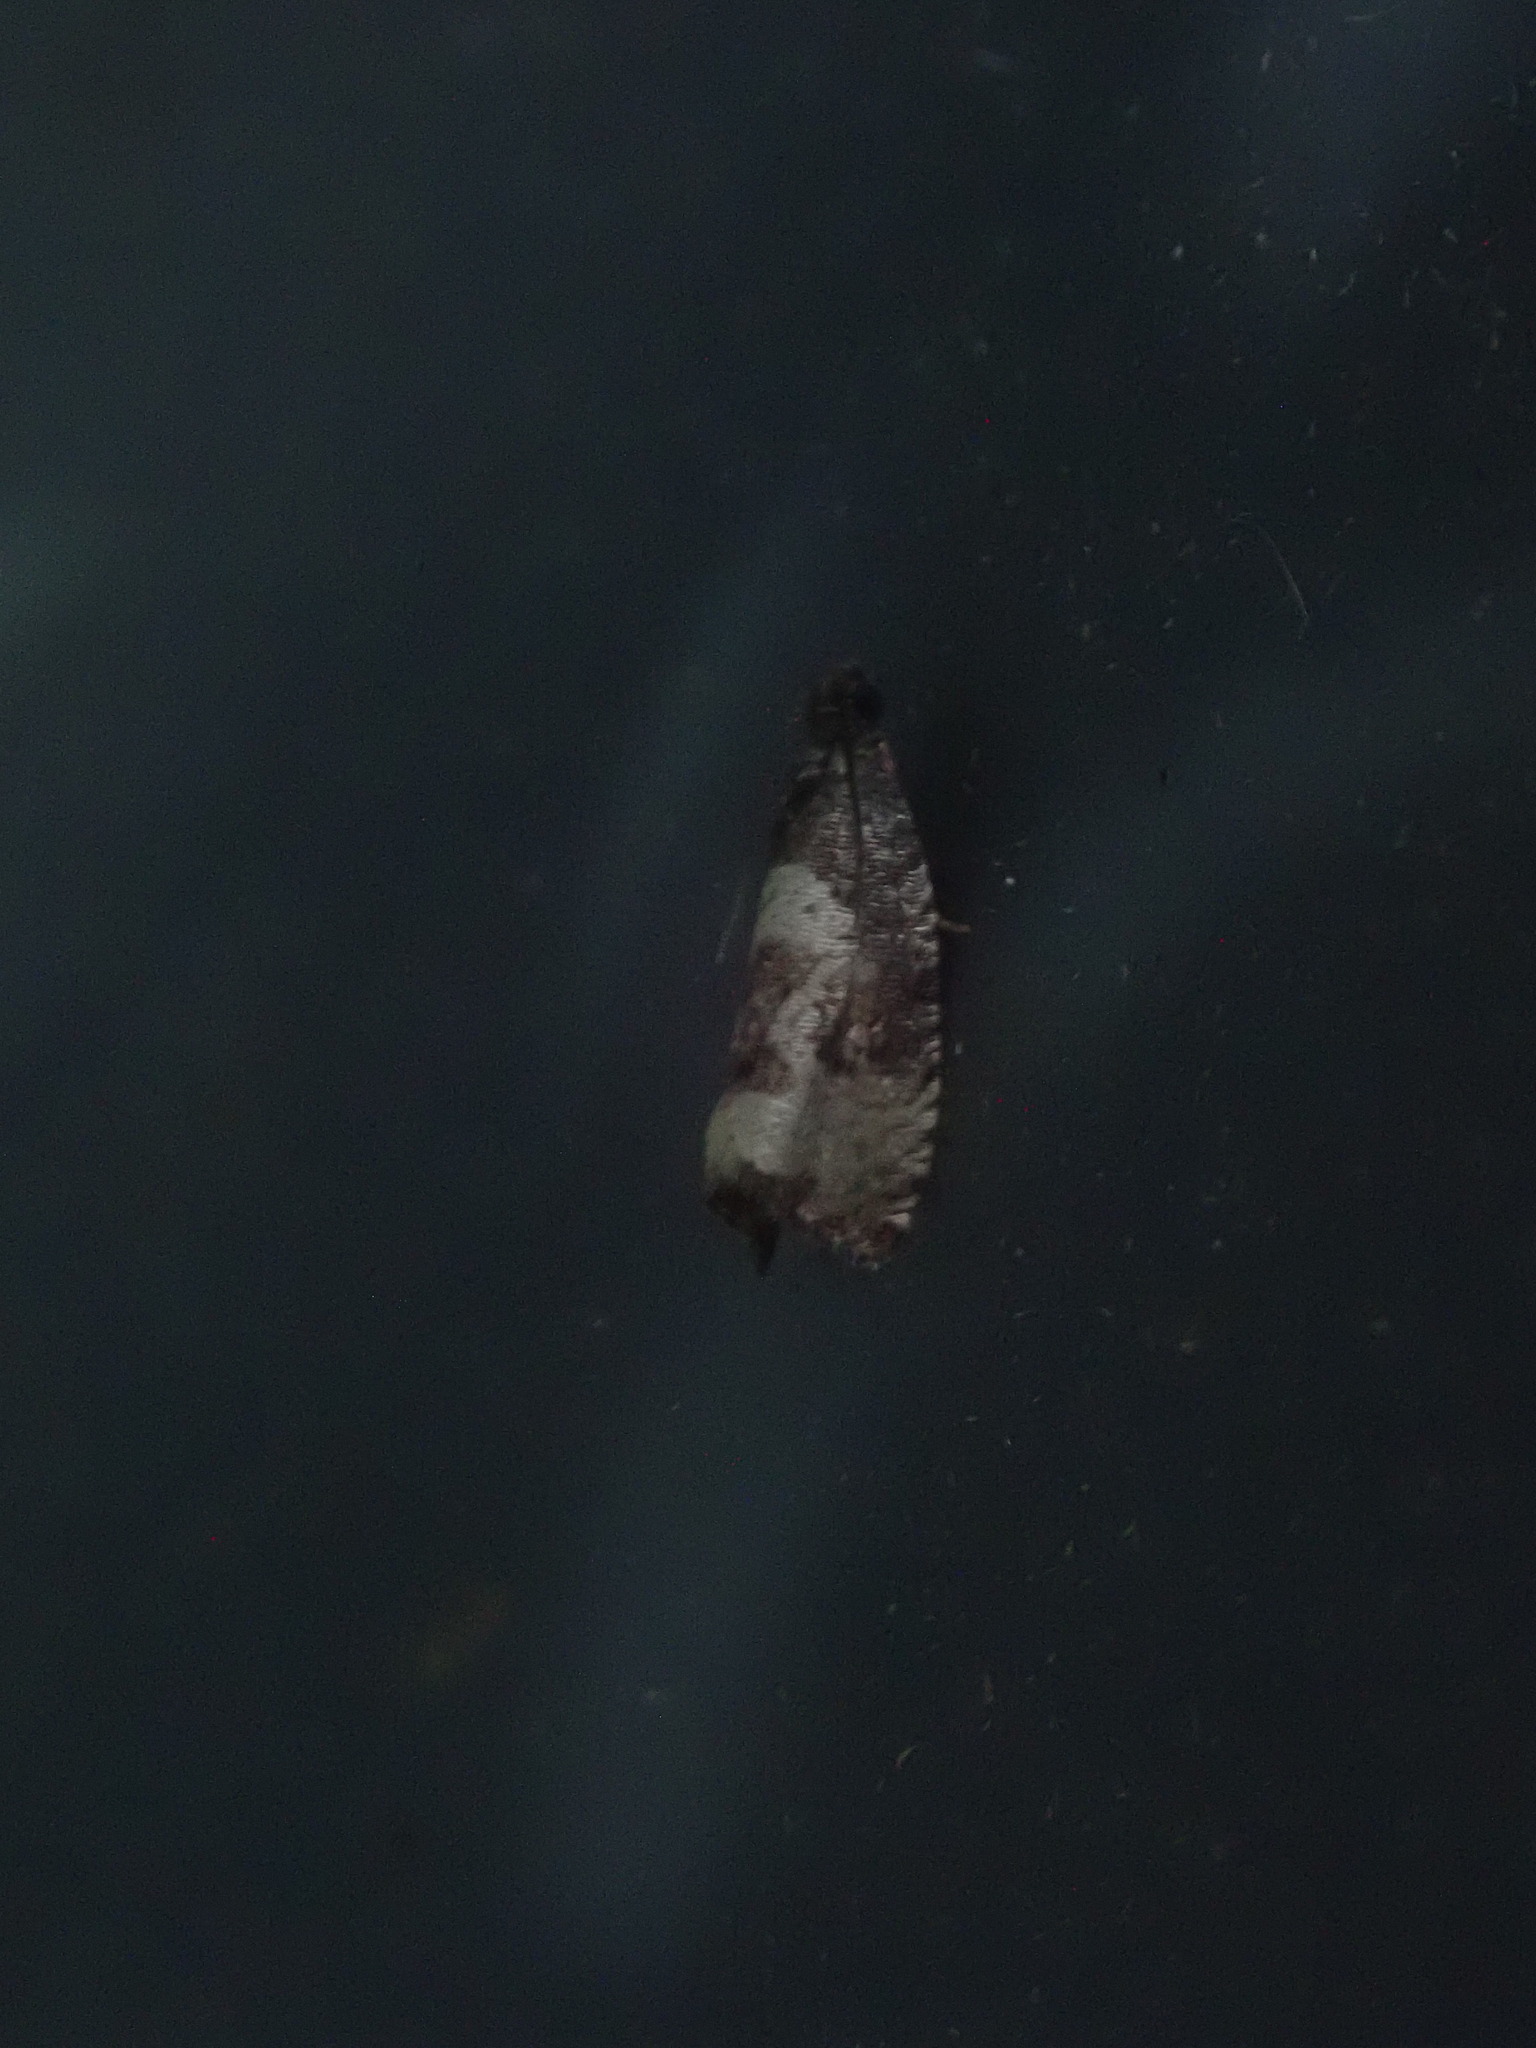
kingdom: Animalia
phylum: Arthropoda
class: Insecta
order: Lepidoptera
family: Tortricidae
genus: Hulda
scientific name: Hulda impudens
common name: Impudent hulda moth
